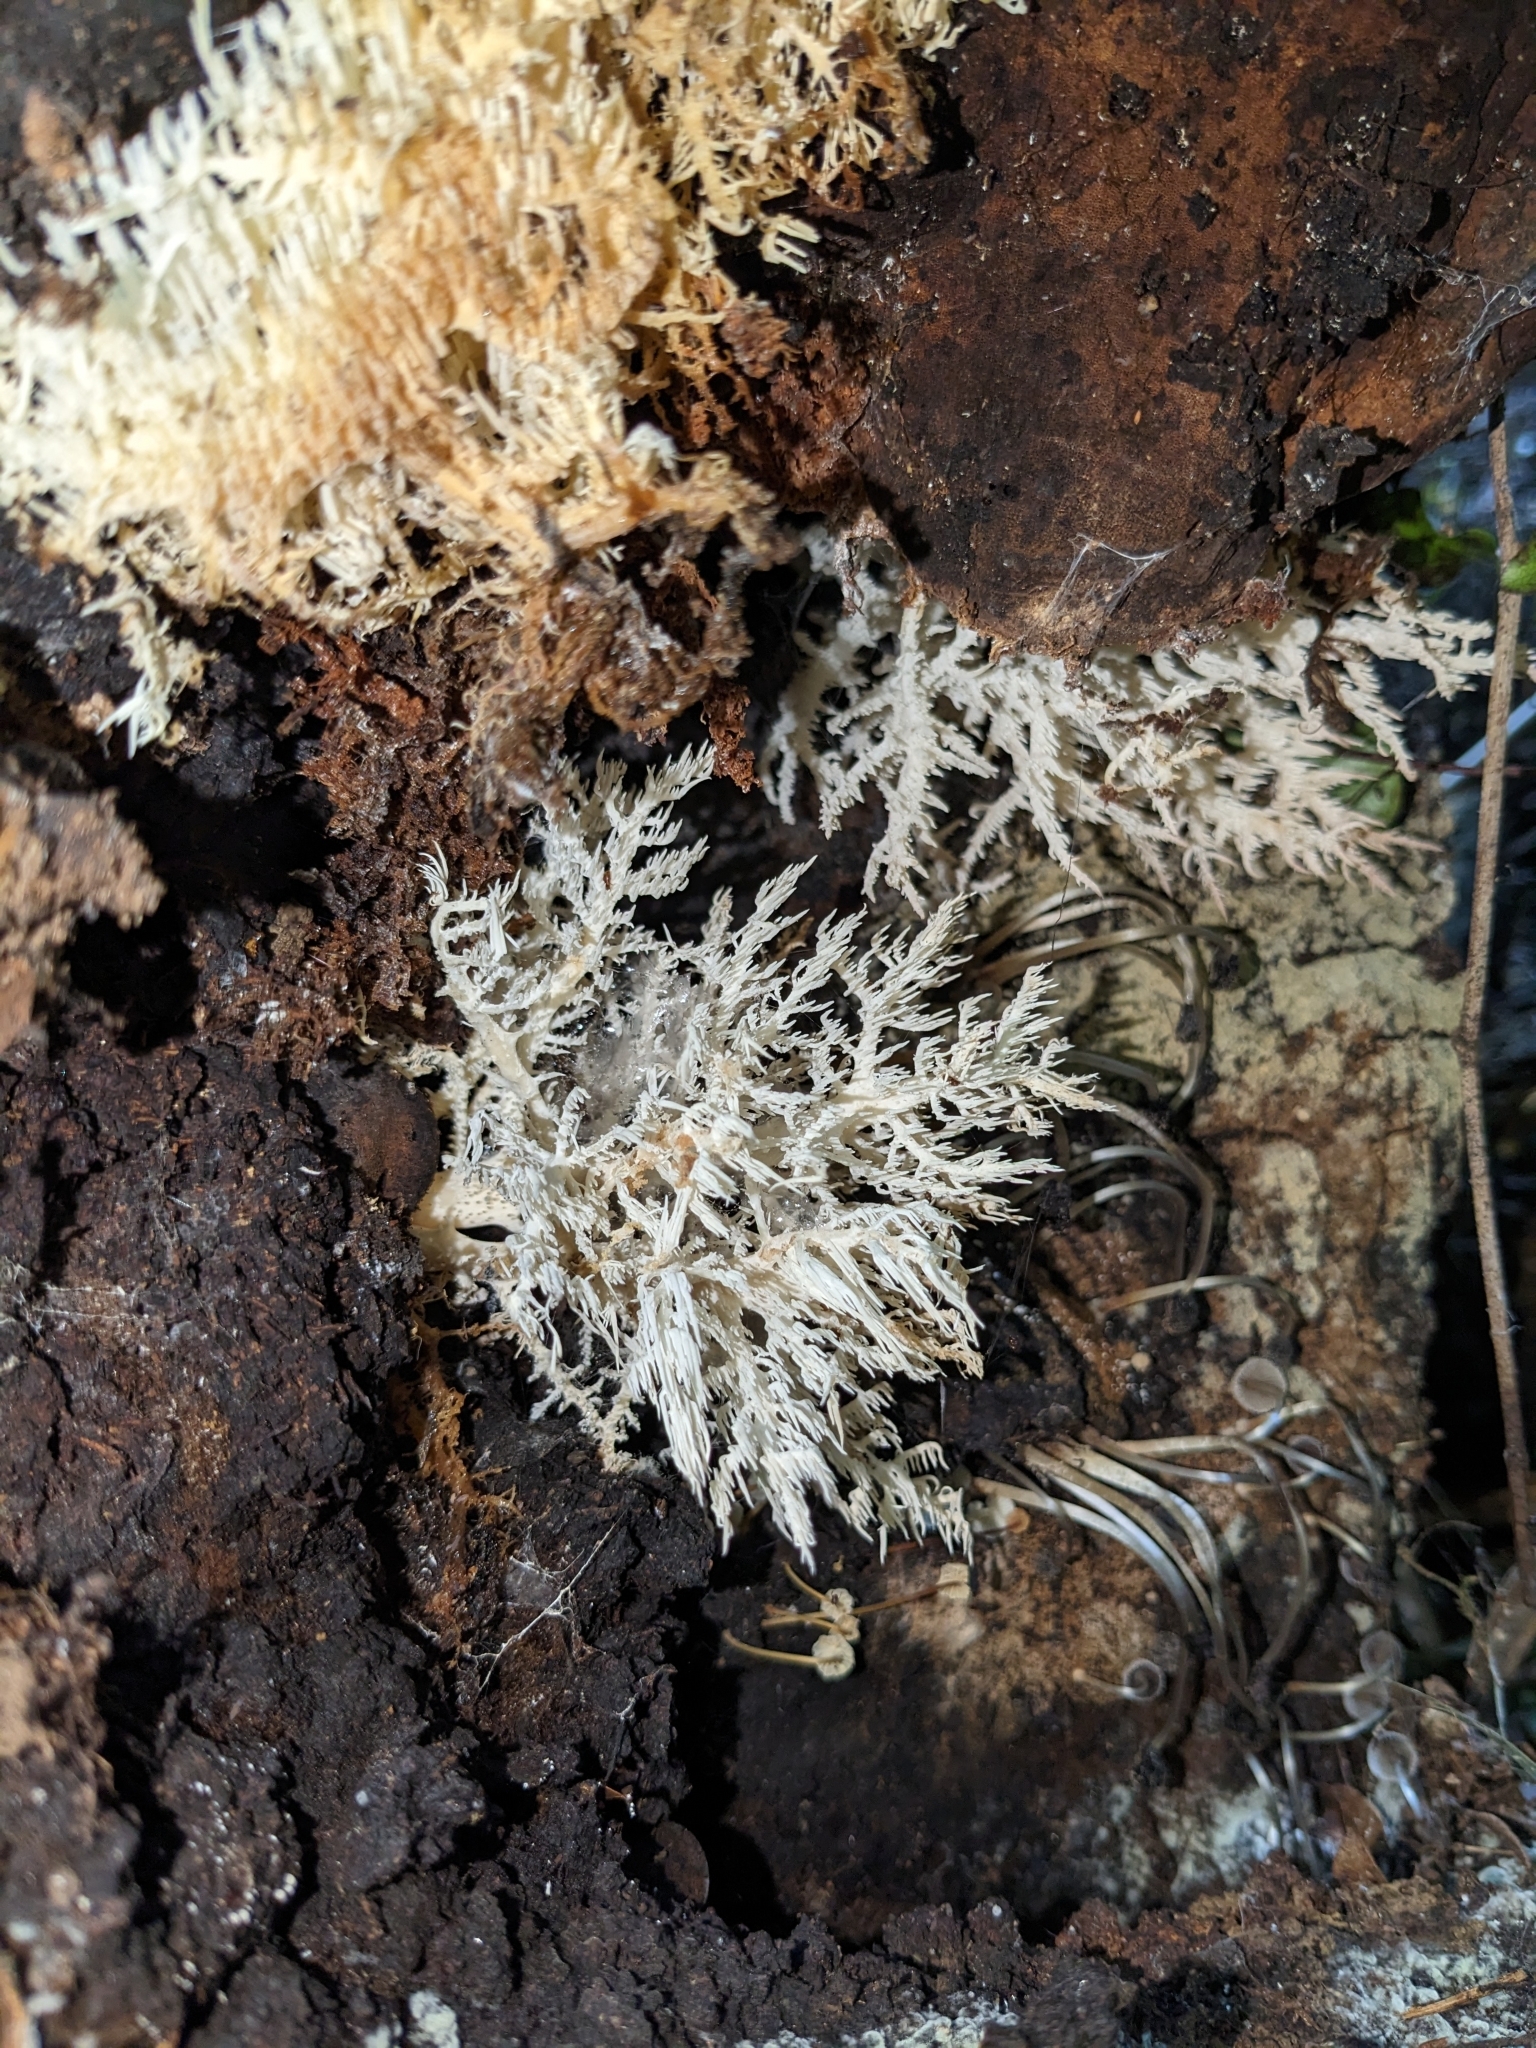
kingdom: Fungi
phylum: Basidiomycota
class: Agaricomycetes
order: Russulales
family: Hericiaceae
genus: Hericium
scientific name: Hericium novae-zealandiae
